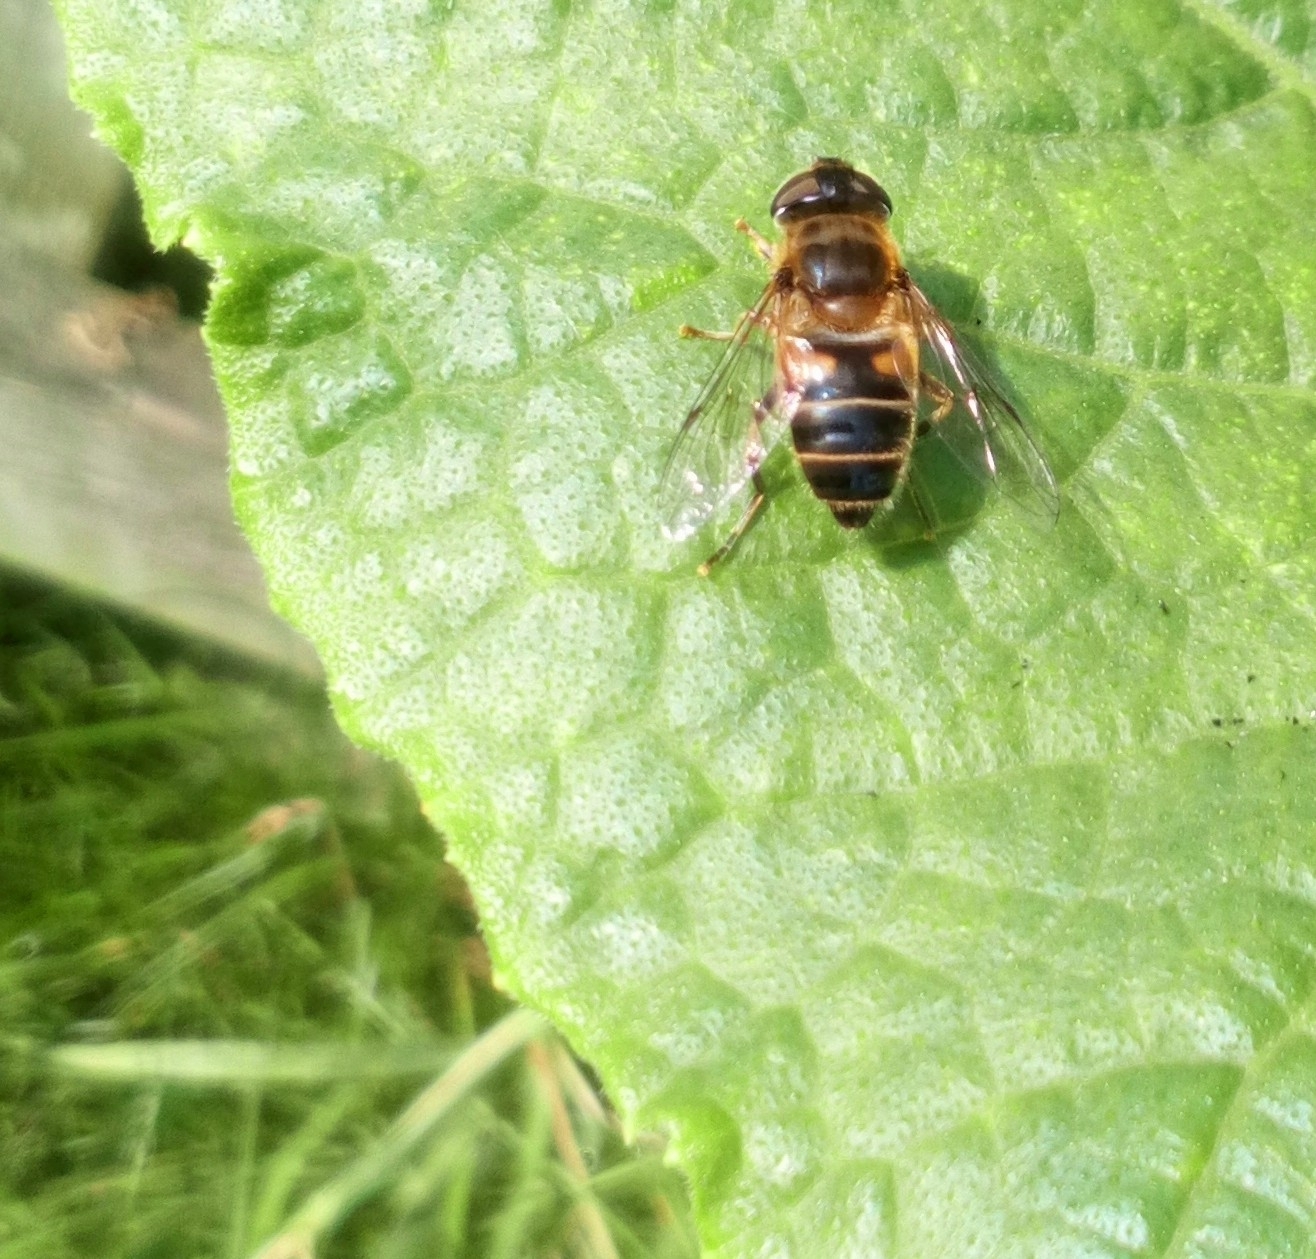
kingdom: Animalia
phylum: Arthropoda
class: Insecta
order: Diptera
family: Syrphidae
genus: Eristalis
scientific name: Eristalis pertinax
